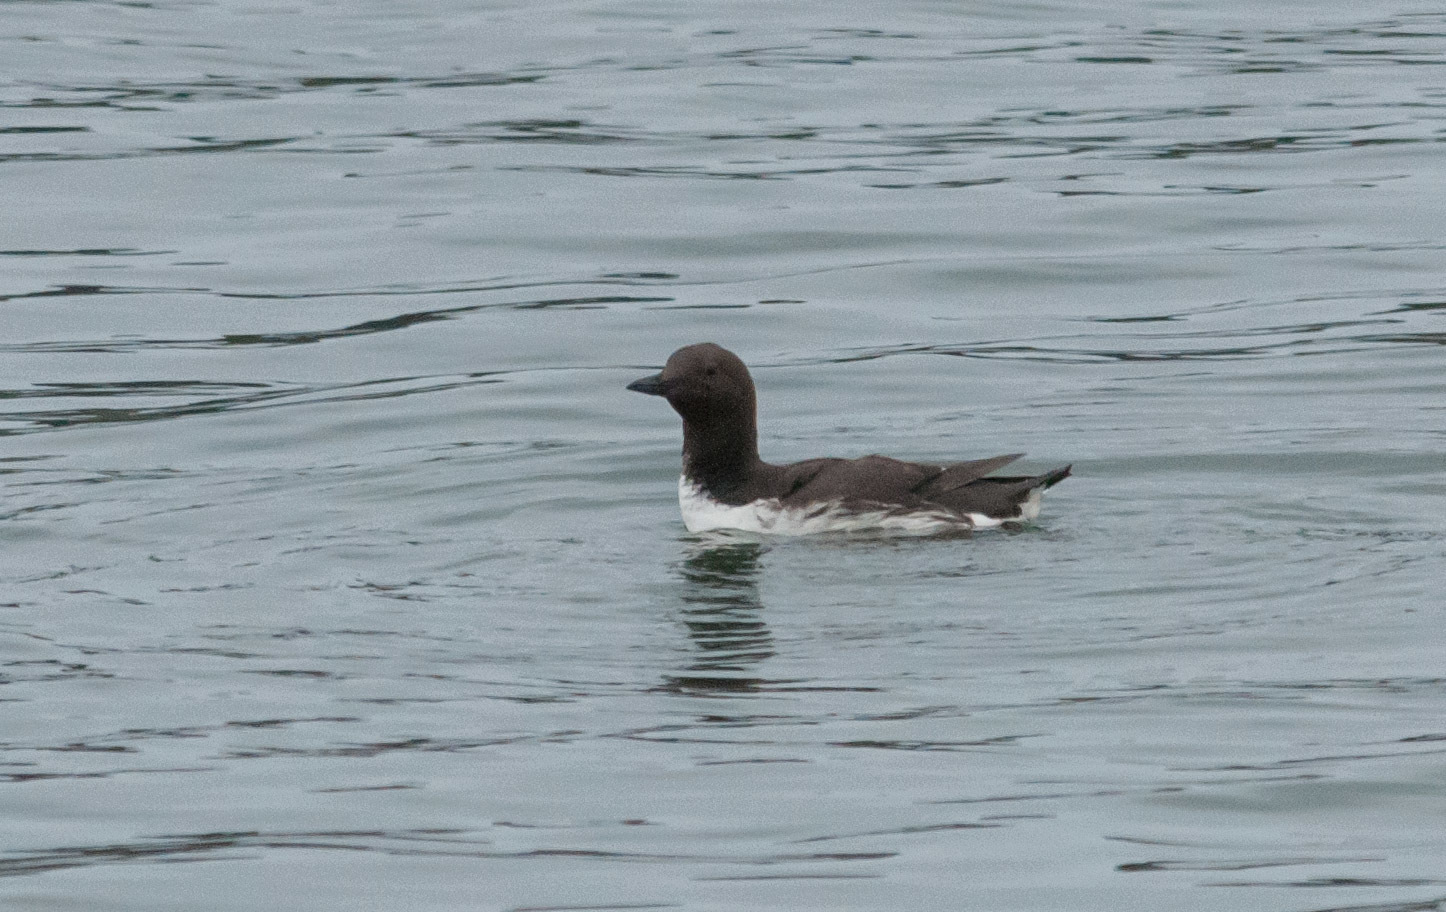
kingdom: Animalia
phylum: Chordata
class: Aves
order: Charadriiformes
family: Alcidae
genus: Uria
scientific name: Uria aalge
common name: Common murre
